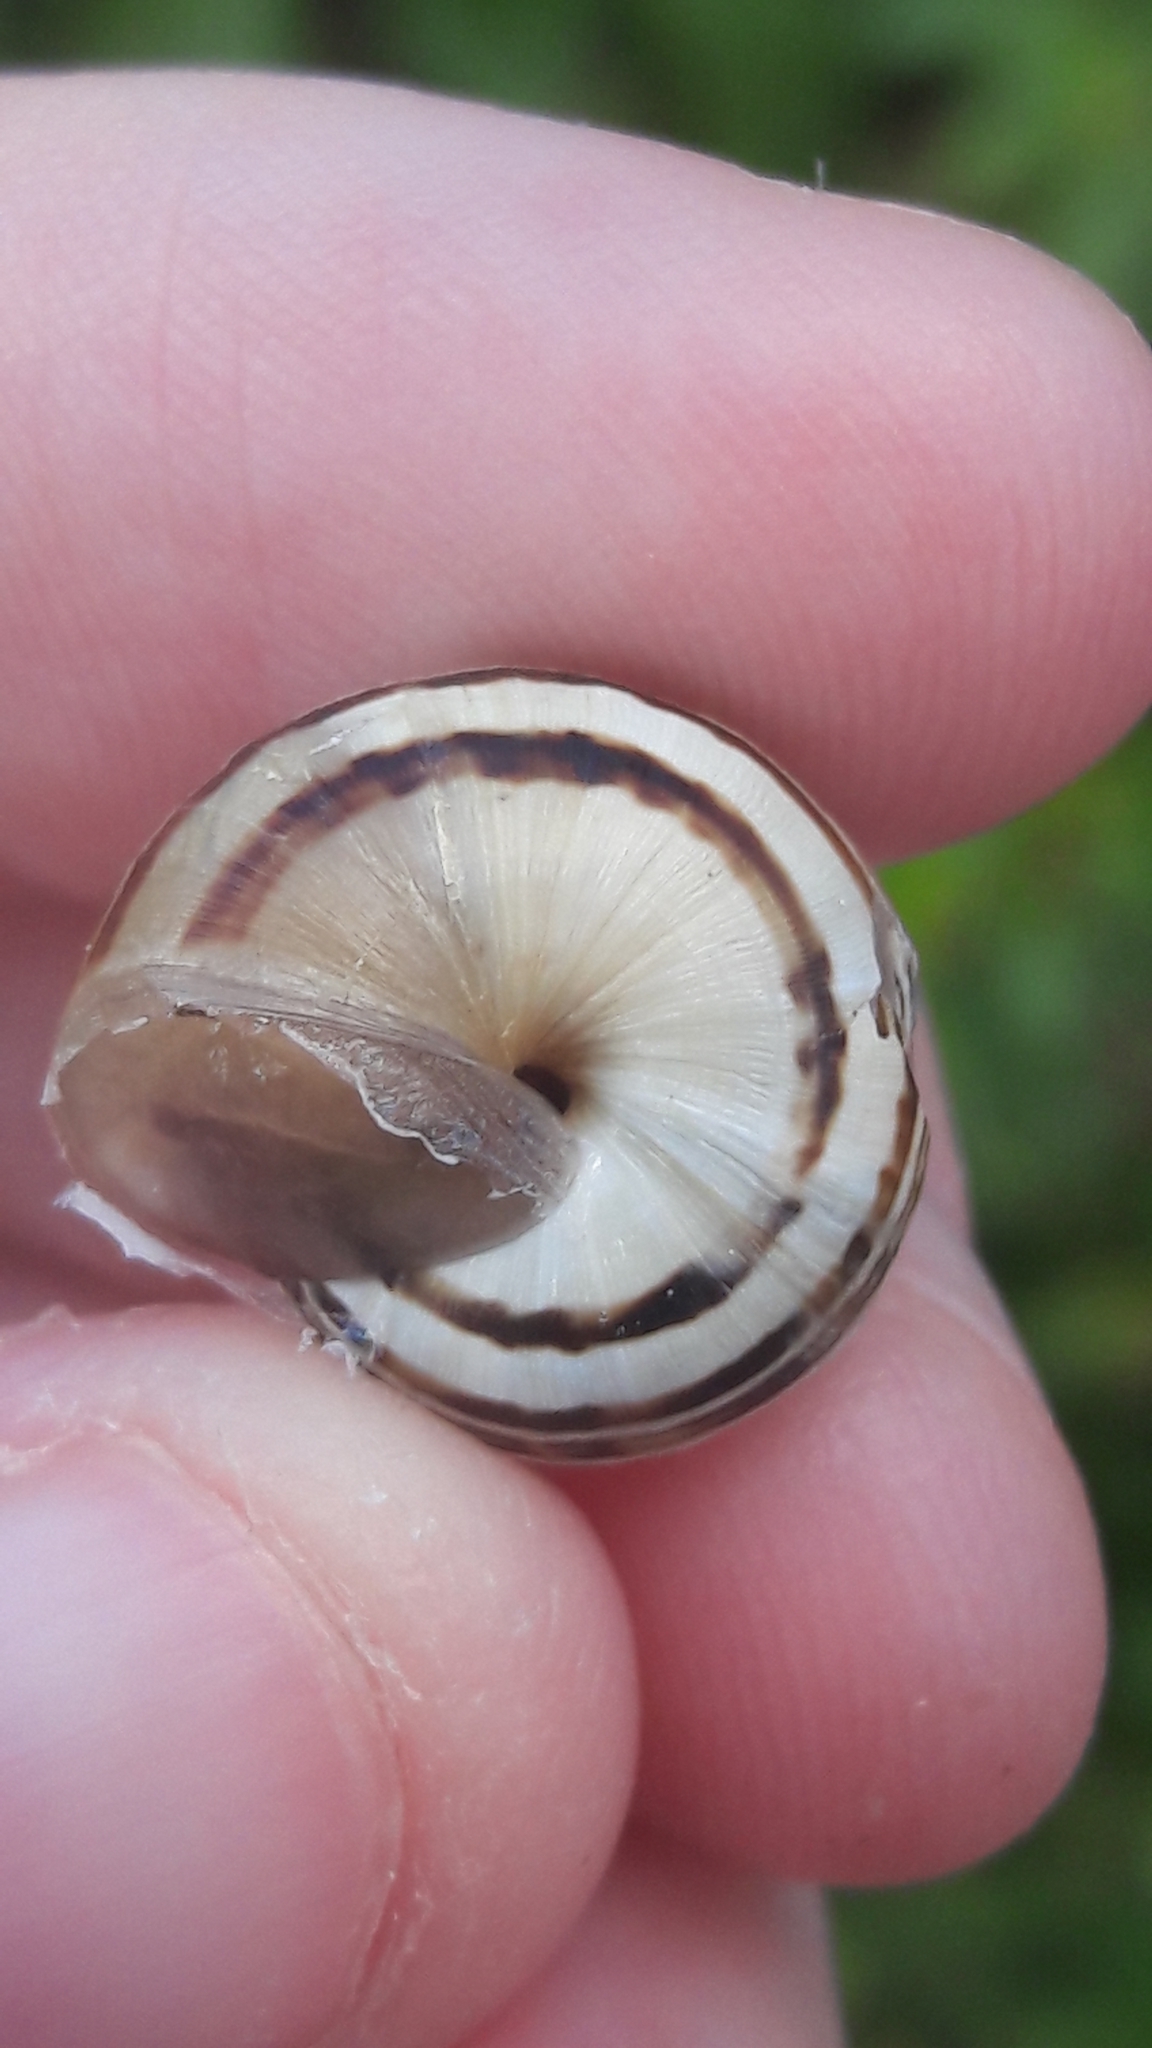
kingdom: Animalia
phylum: Mollusca
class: Gastropoda
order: Stylommatophora
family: Helicidae
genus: Theba
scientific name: Theba pisana
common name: White snail
